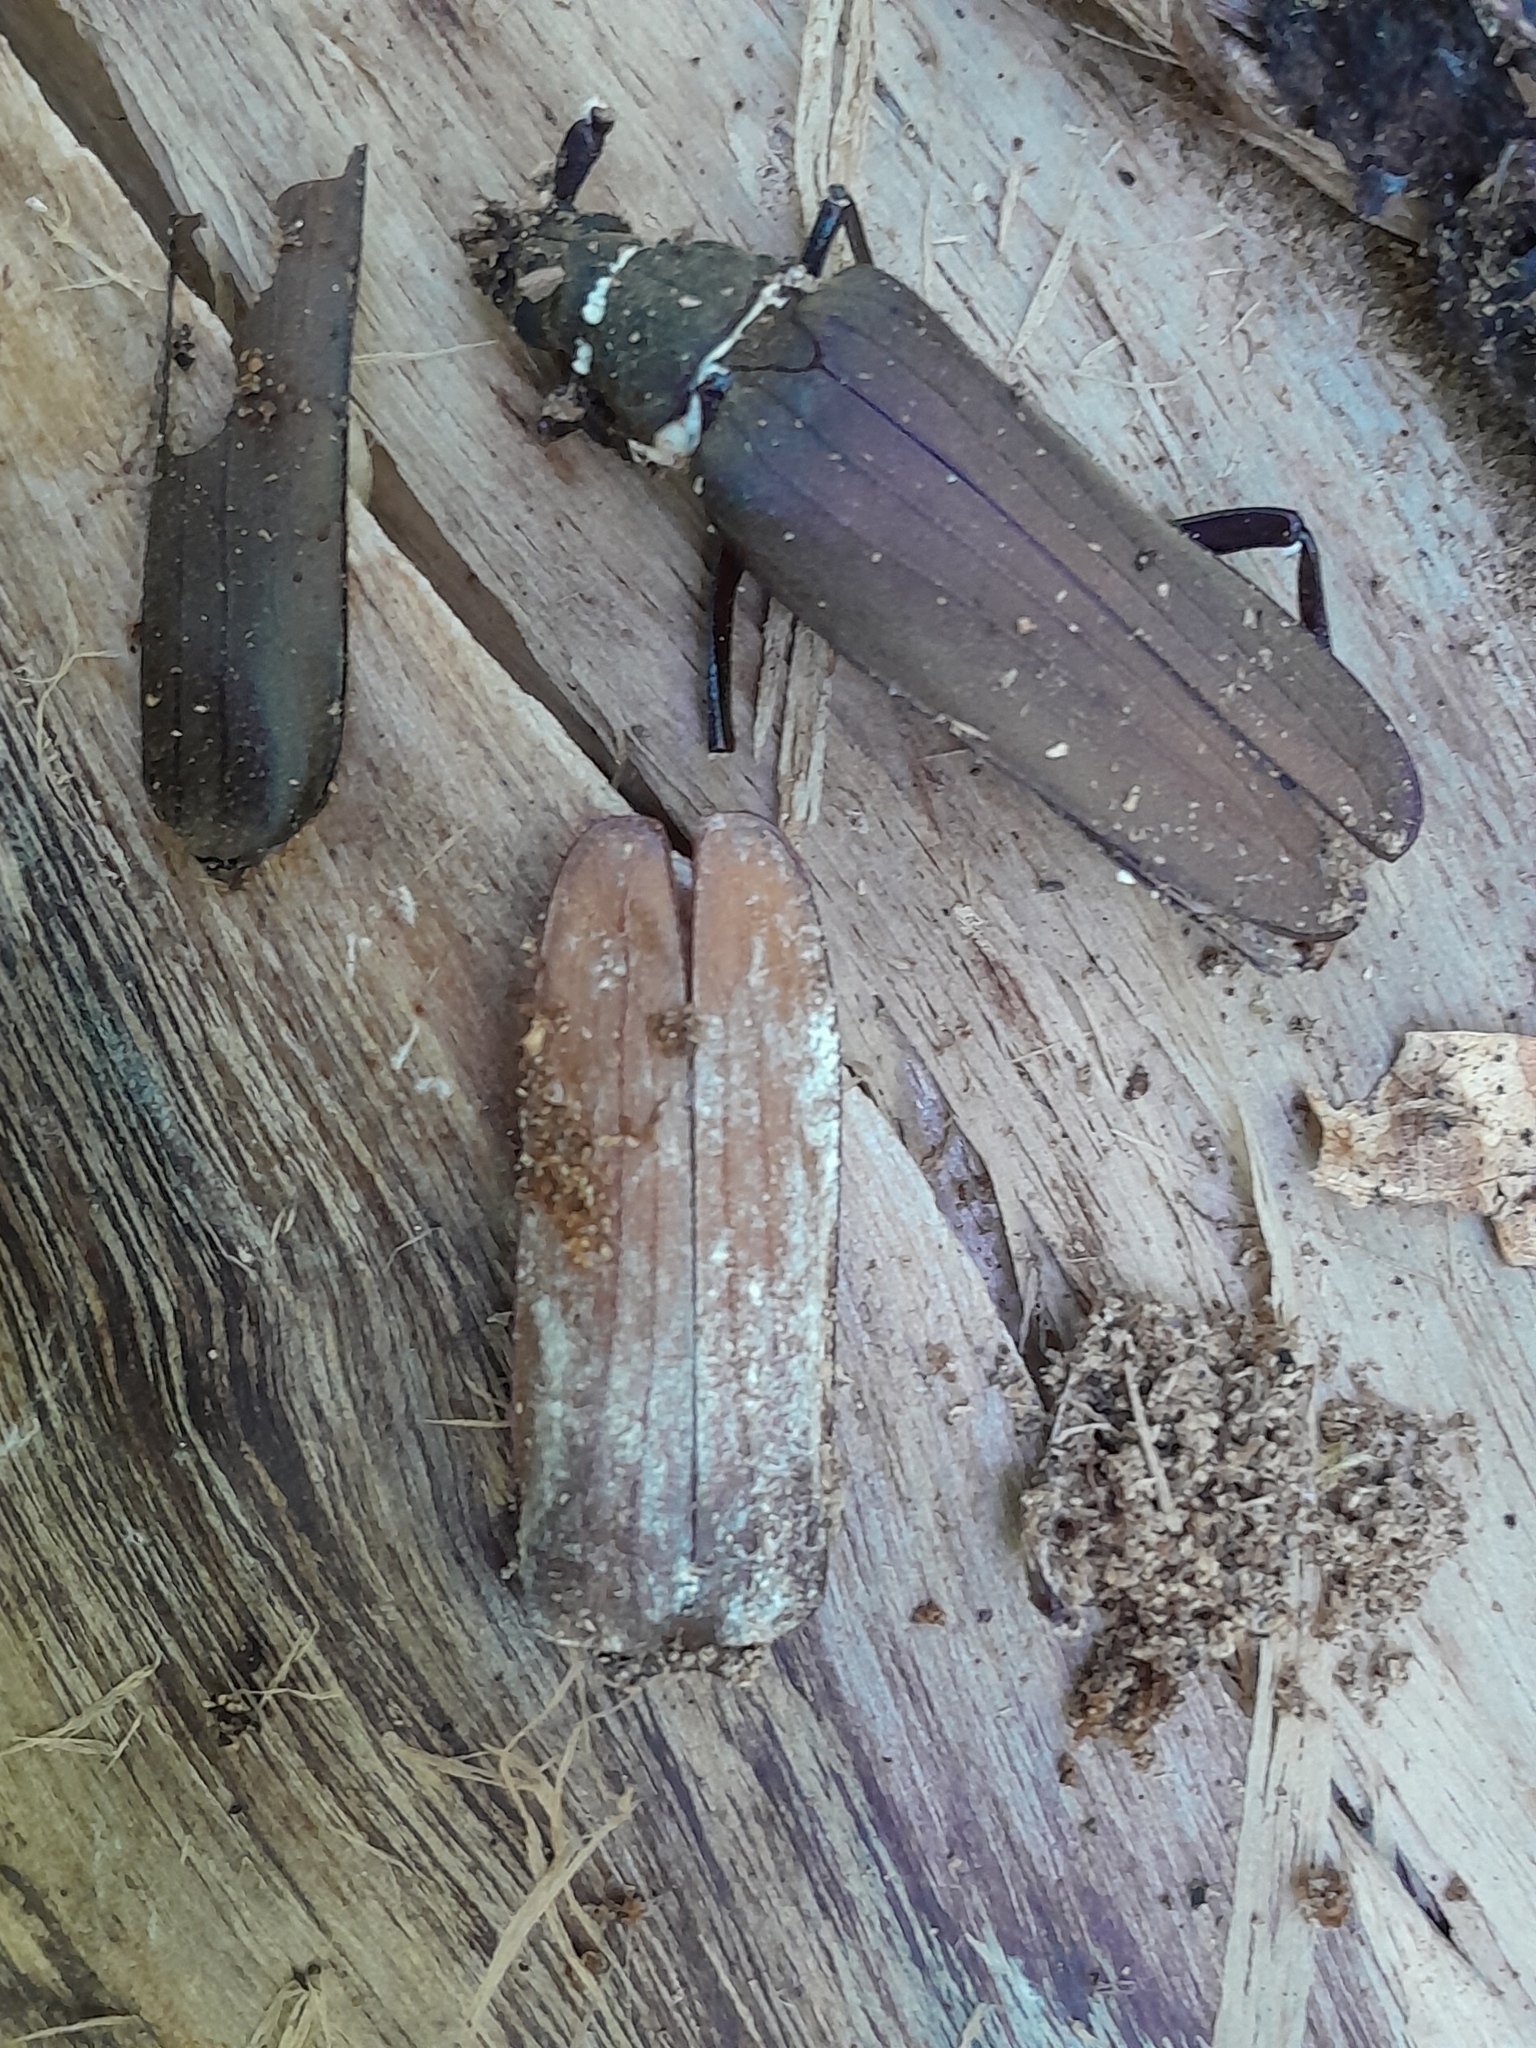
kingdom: Animalia
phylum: Arthropoda
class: Insecta
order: Coleoptera
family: Cerambycidae
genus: Aegosoma
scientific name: Aegosoma scabricorne
